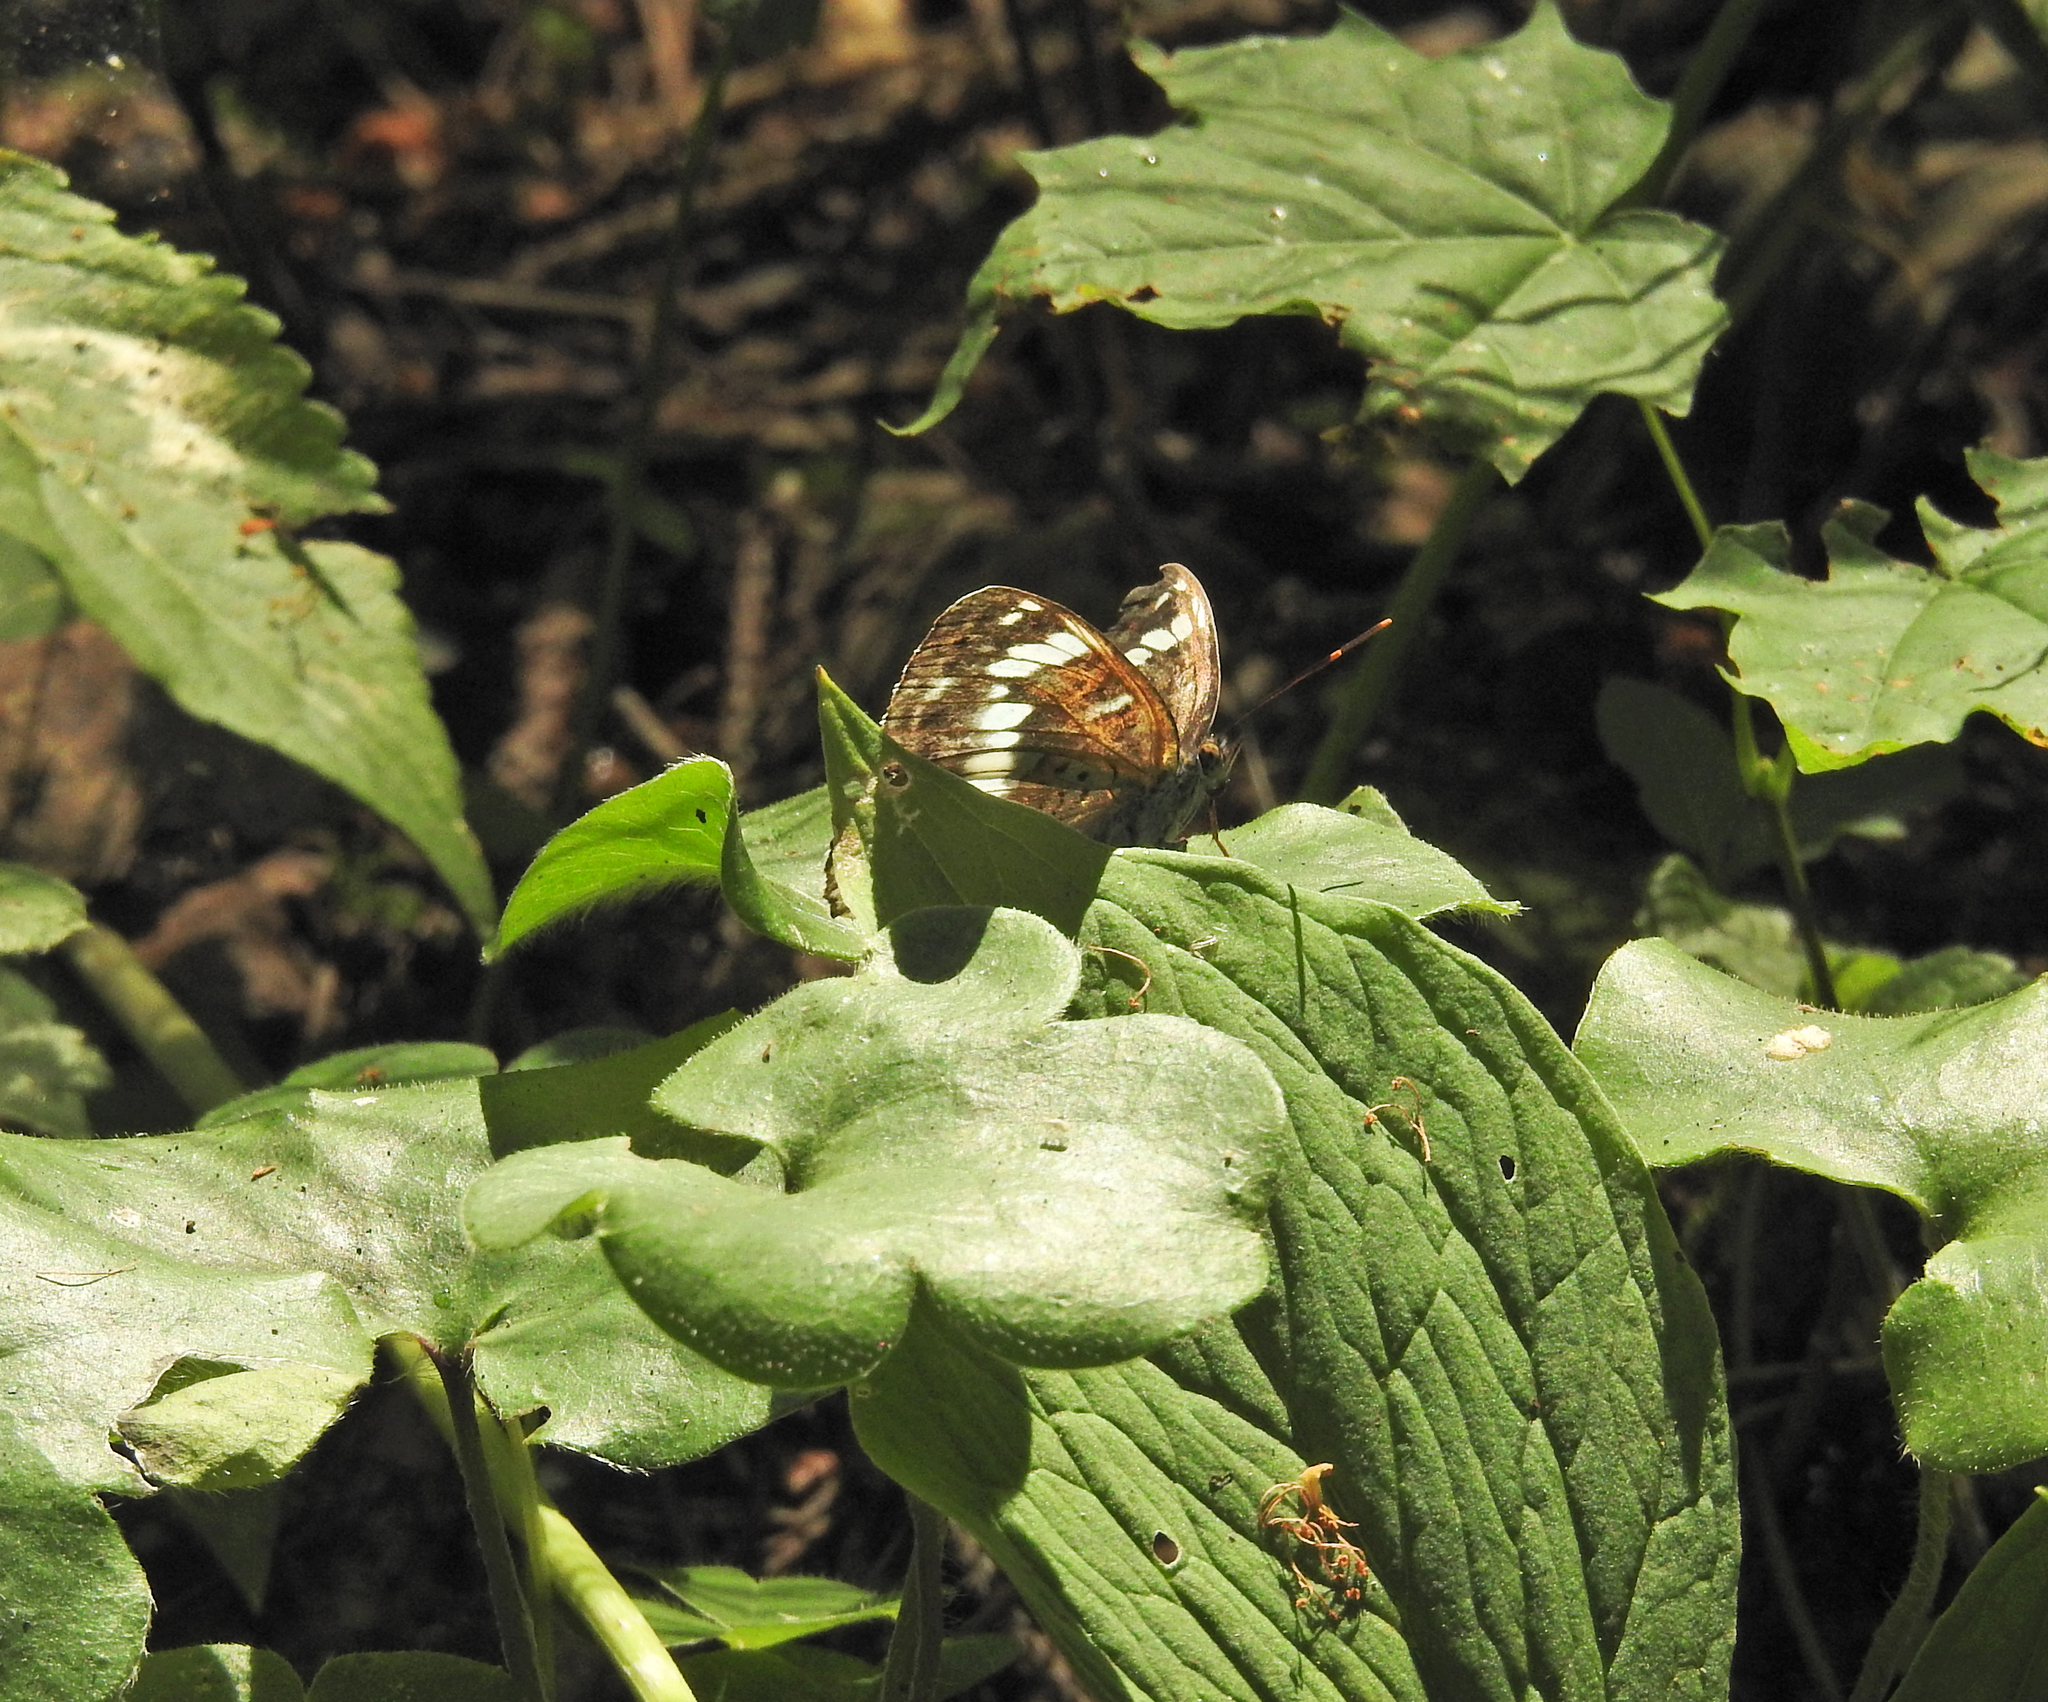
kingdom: Animalia
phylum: Arthropoda
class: Insecta
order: Lepidoptera
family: Nymphalidae
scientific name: Nymphalidae
